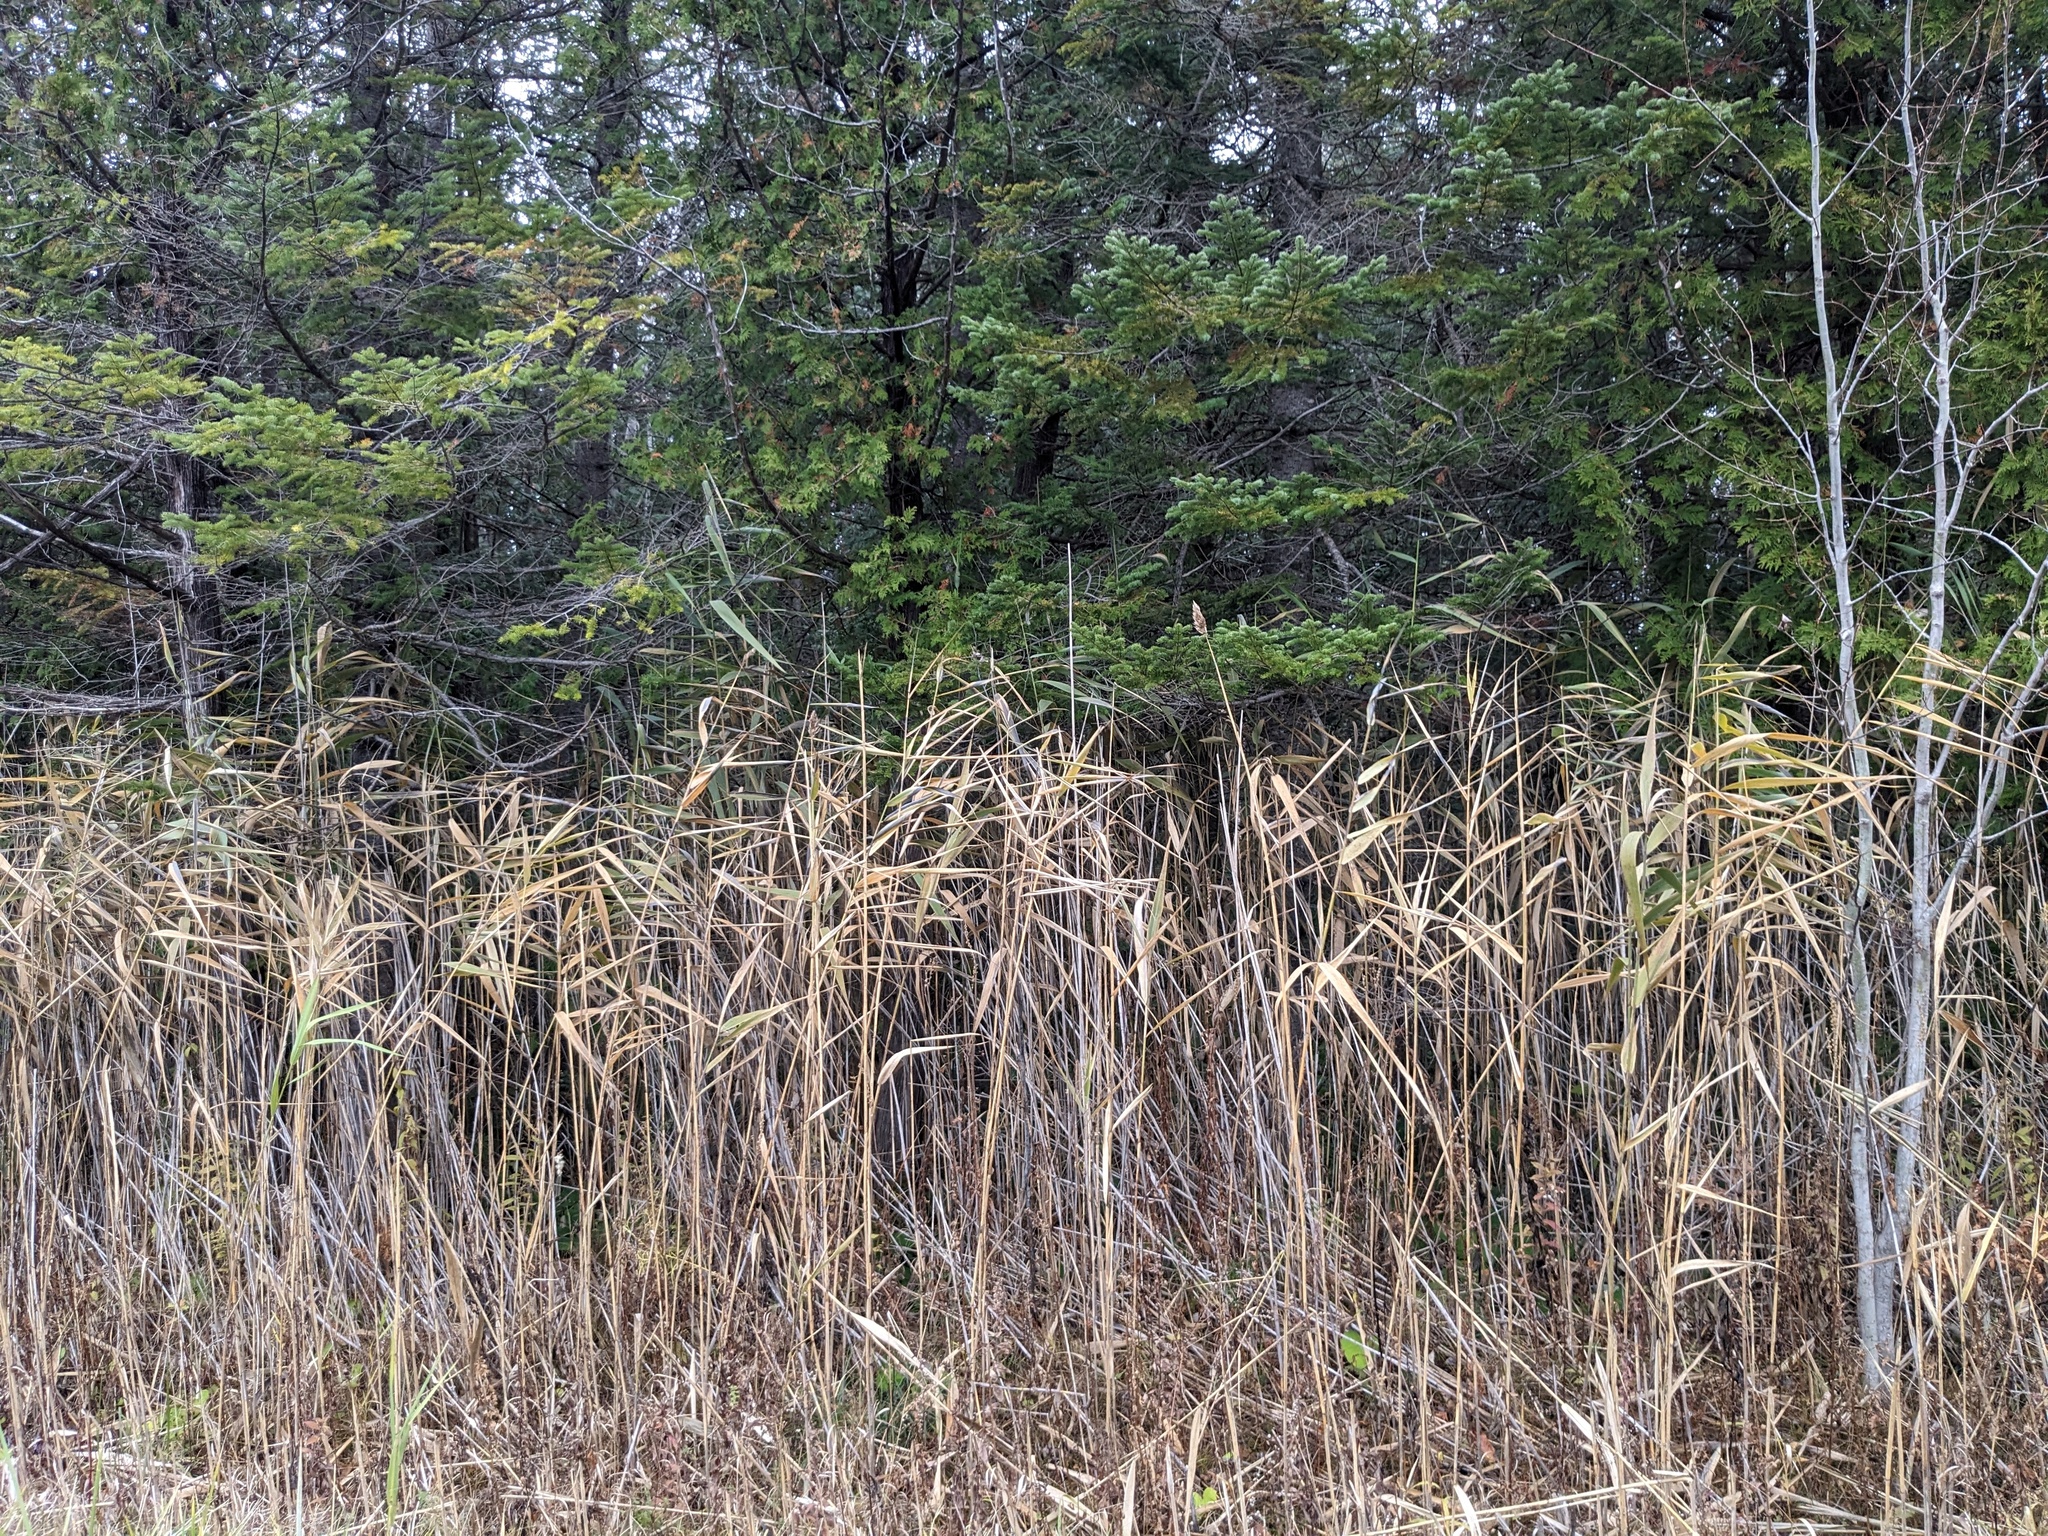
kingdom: Plantae
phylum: Tracheophyta
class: Liliopsida
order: Poales
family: Poaceae
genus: Phragmites
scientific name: Phragmites australis
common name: Common reed
